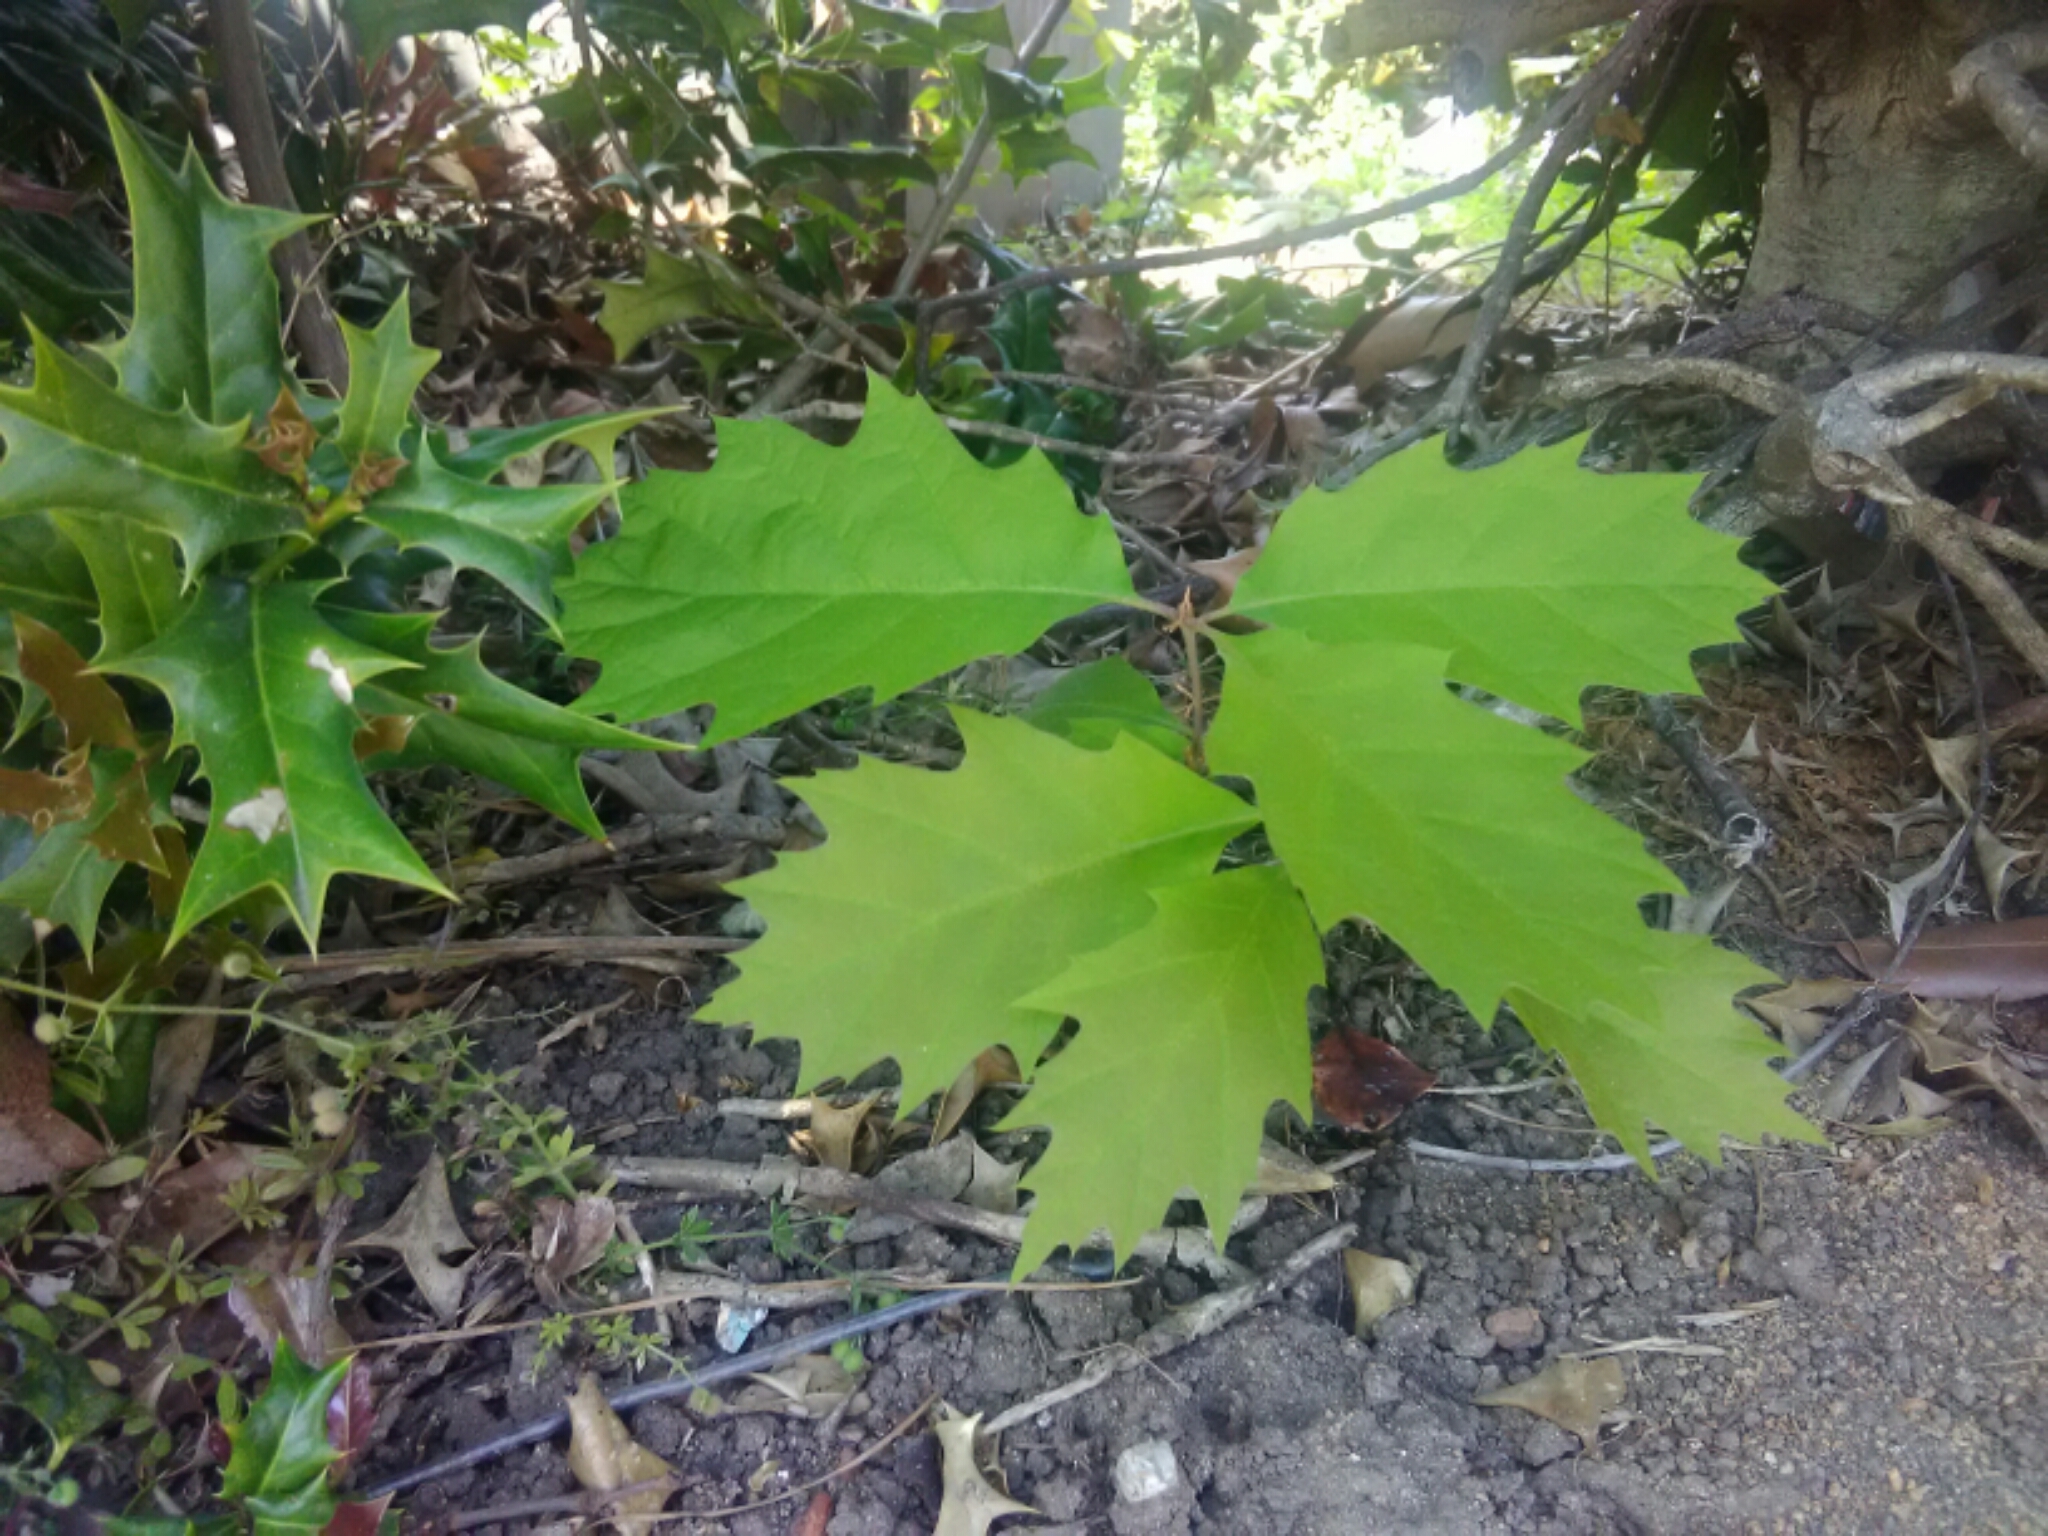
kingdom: Plantae
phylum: Tracheophyta
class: Magnoliopsida
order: Fagales
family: Fagaceae
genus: Quercus
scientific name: Quercus rubra
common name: Red oak
